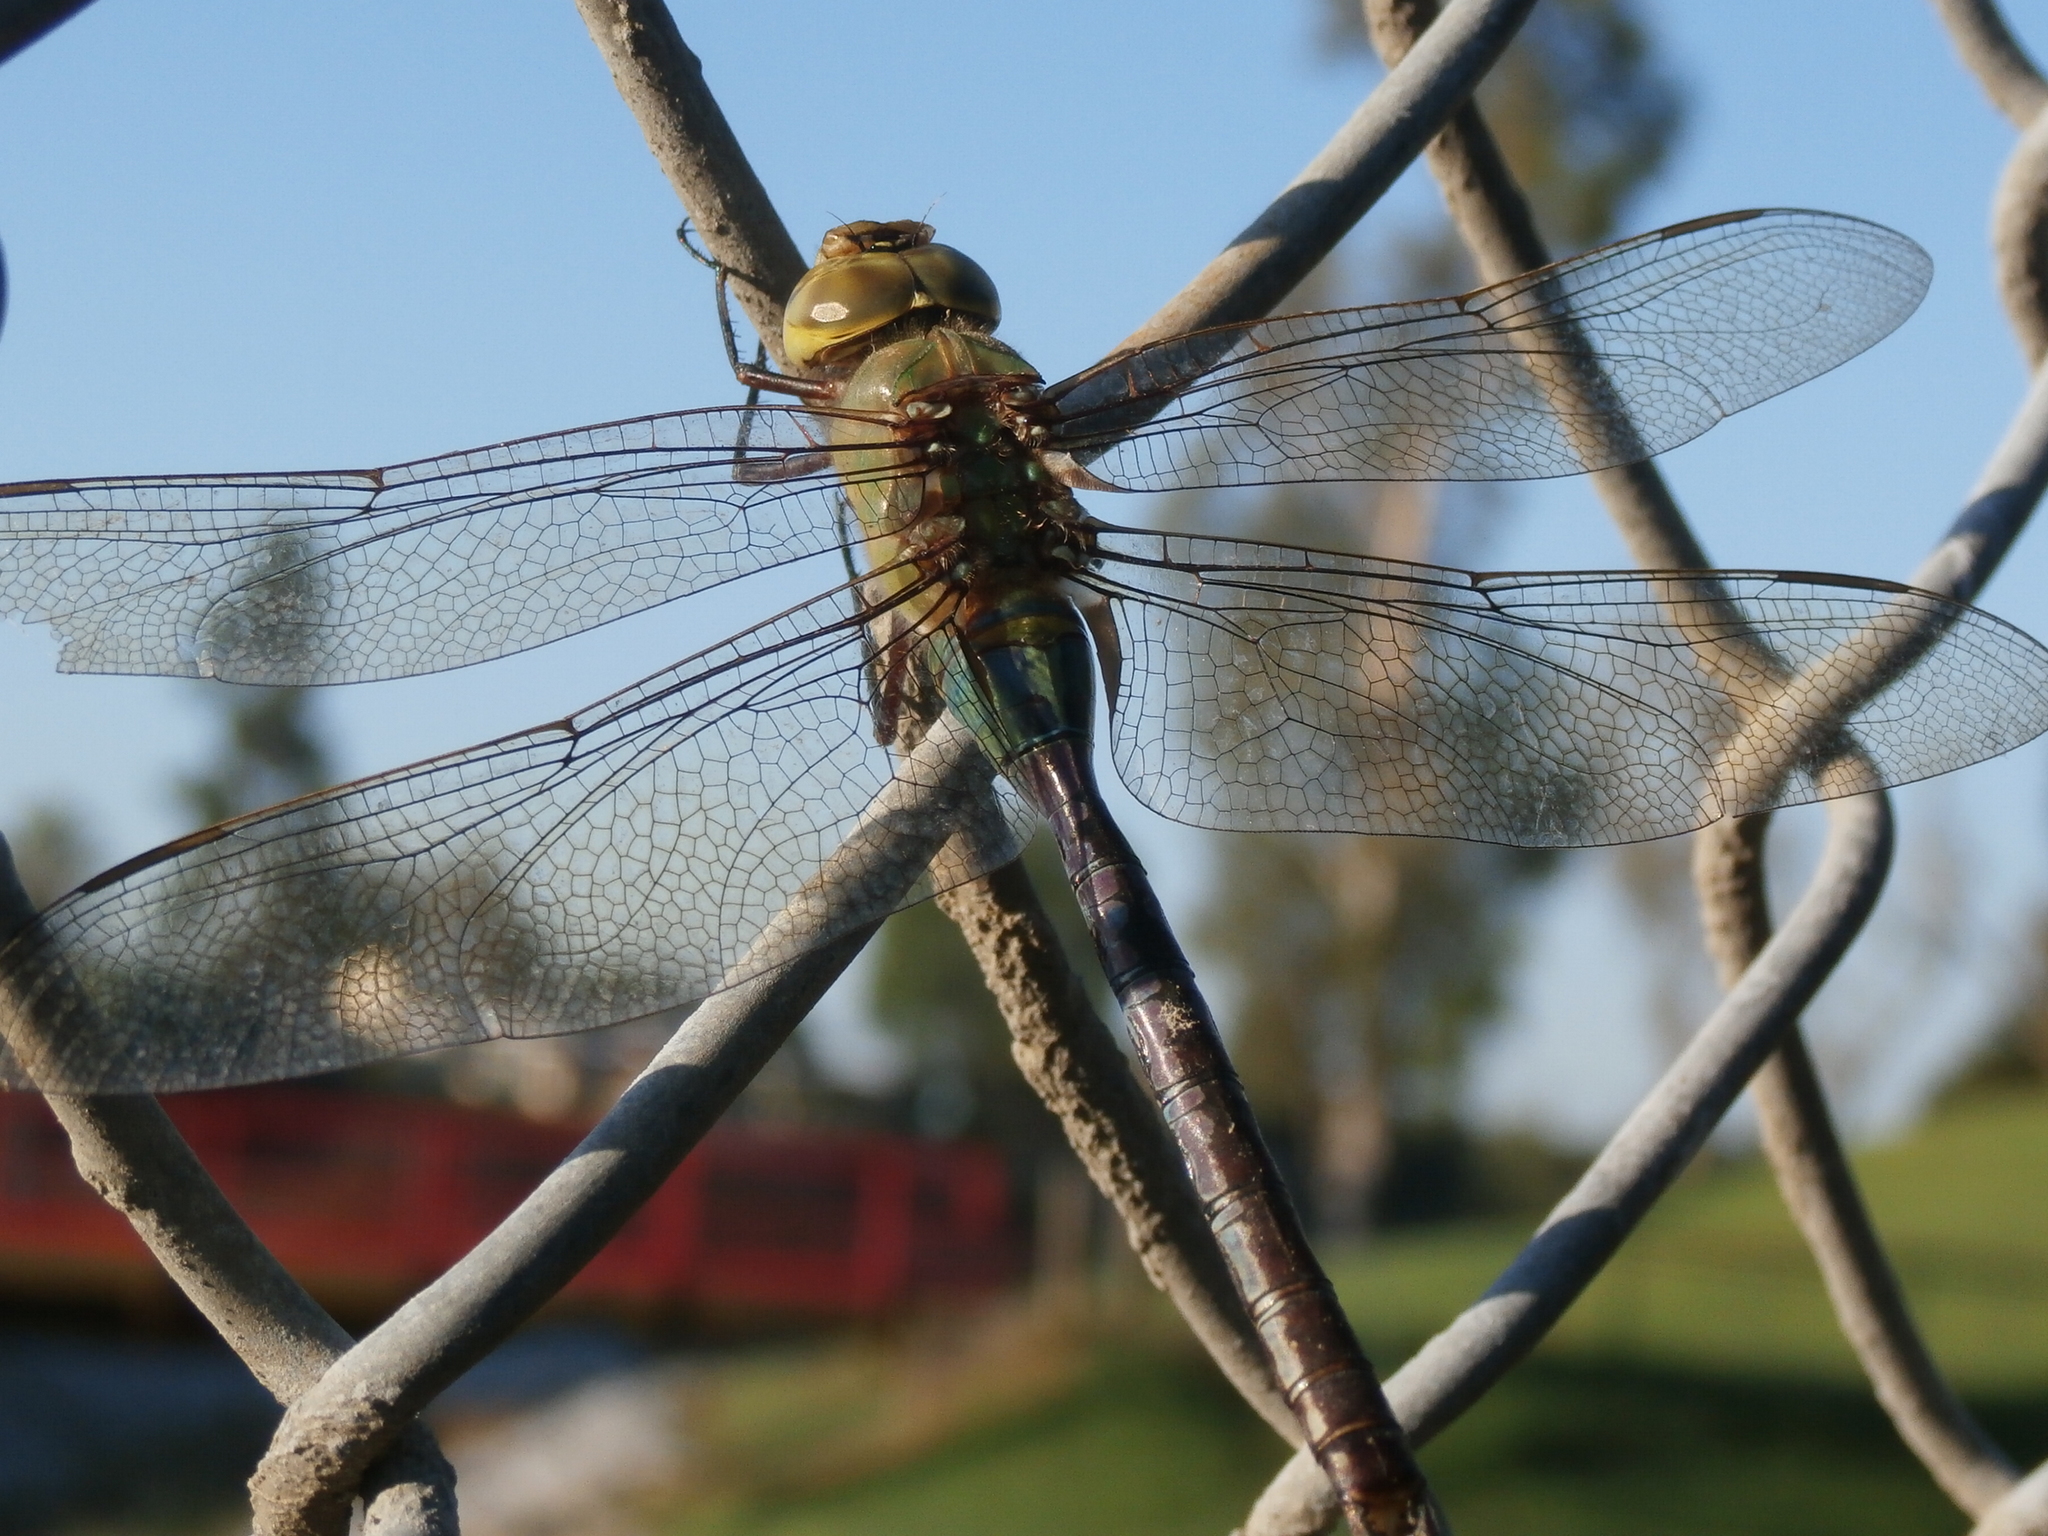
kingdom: Animalia
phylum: Arthropoda
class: Insecta
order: Odonata
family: Aeshnidae
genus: Anax
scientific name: Anax junius
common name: Common green darner
